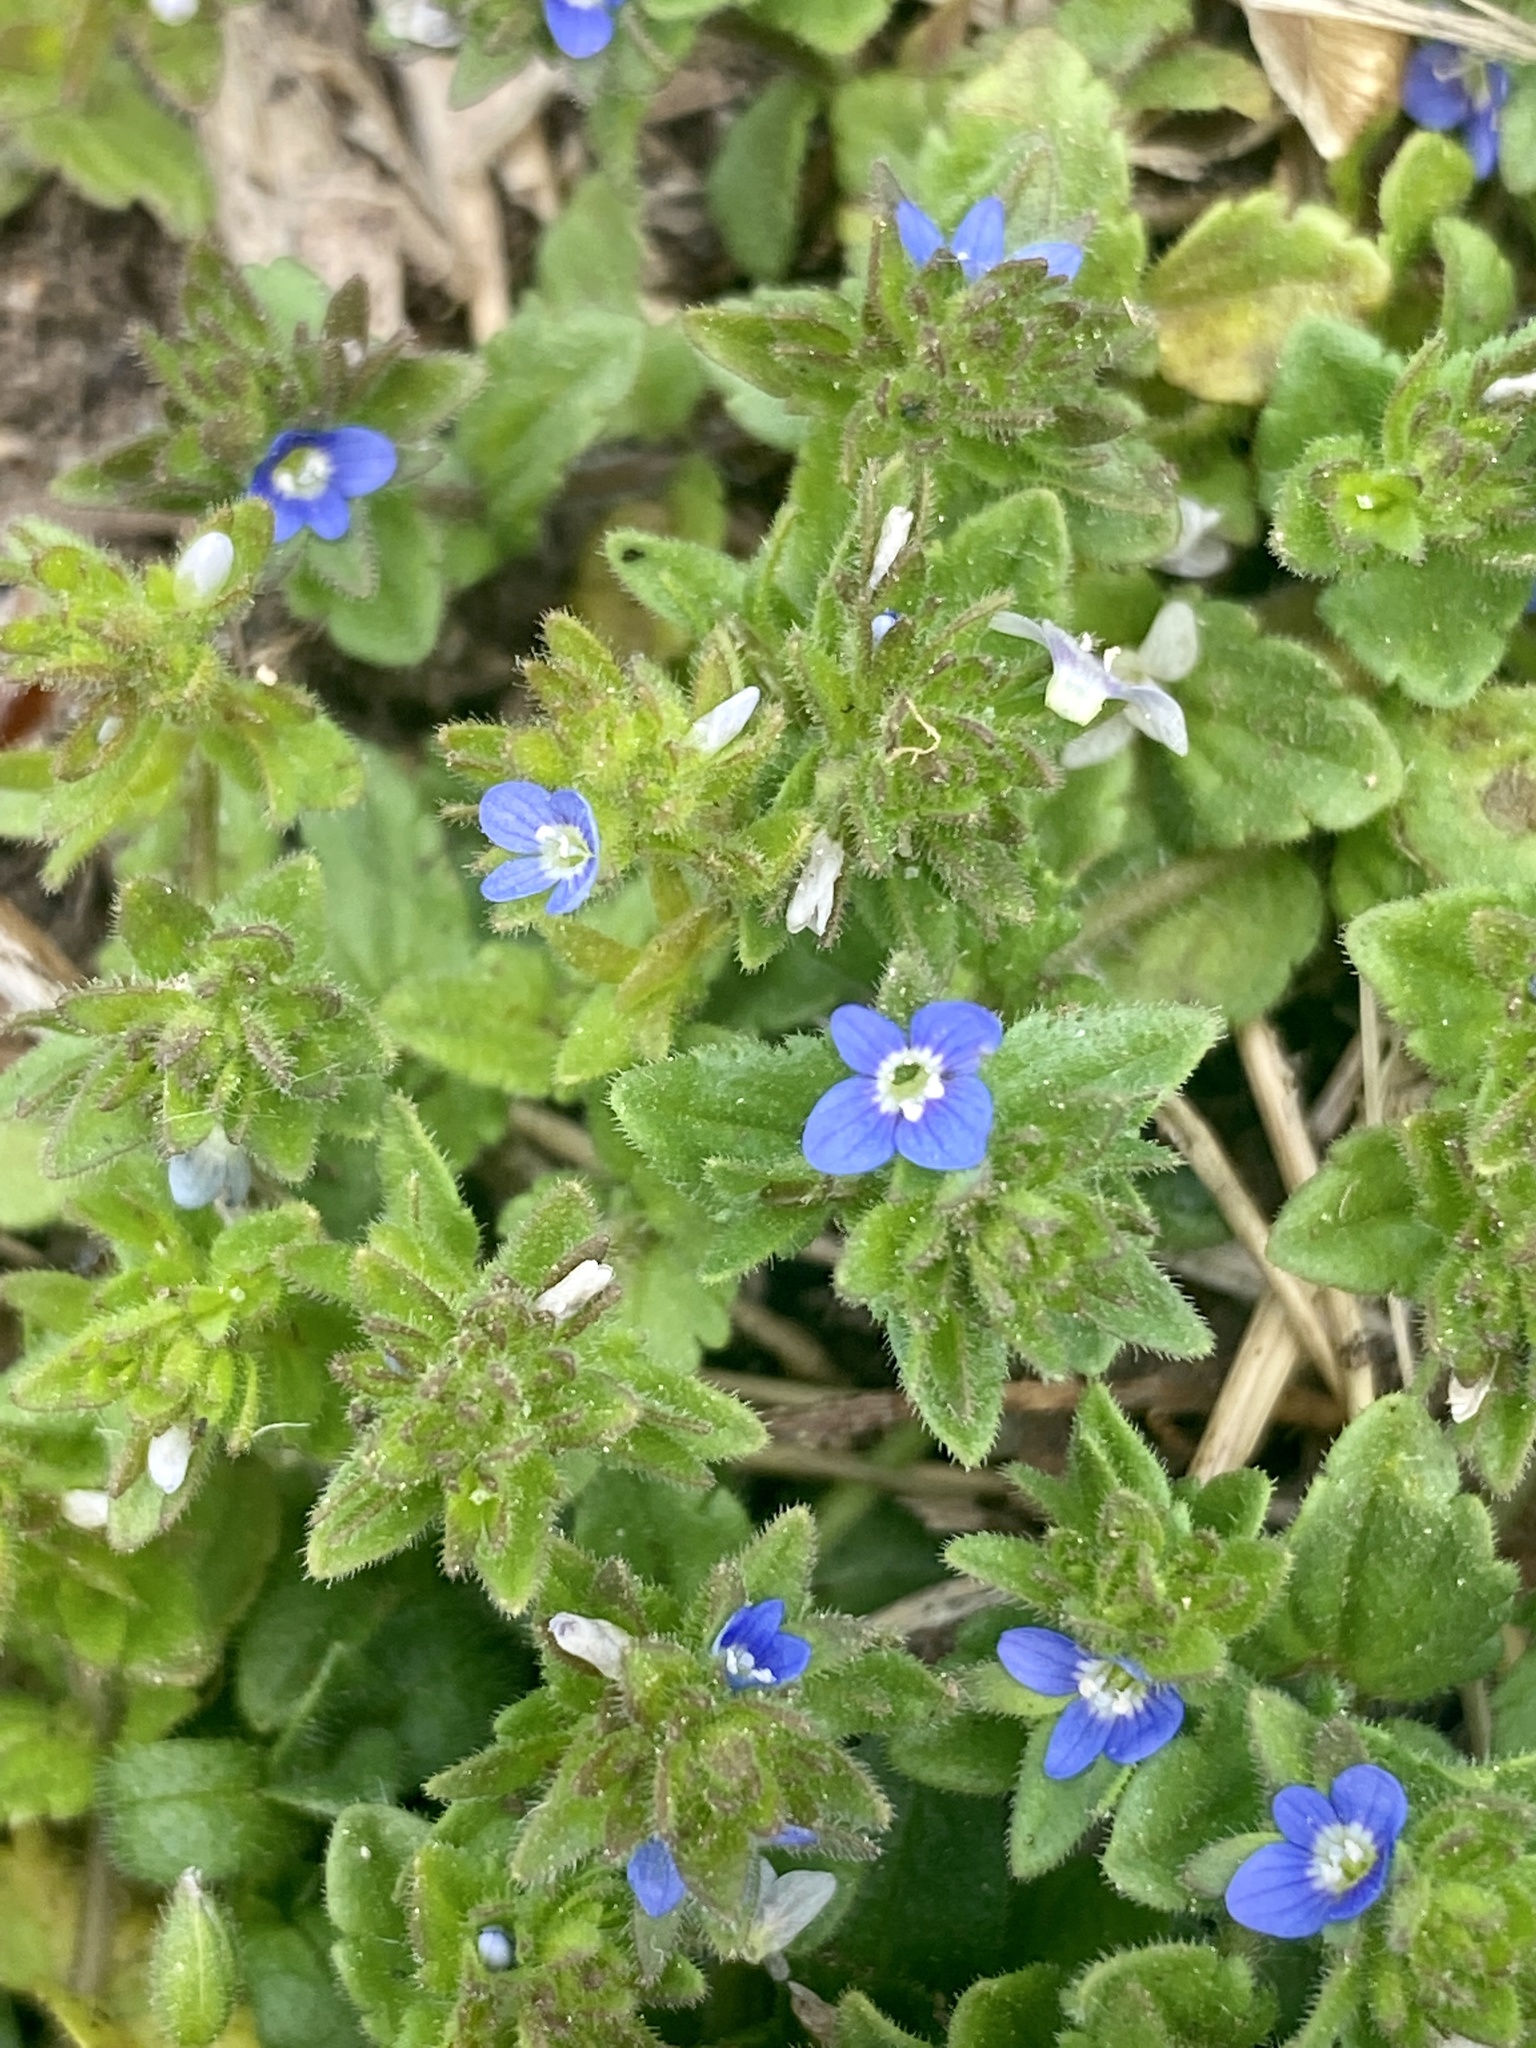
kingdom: Plantae
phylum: Tracheophyta
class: Magnoliopsida
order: Lamiales
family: Plantaginaceae
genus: Veronica
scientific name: Veronica arvensis
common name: Corn speedwell
